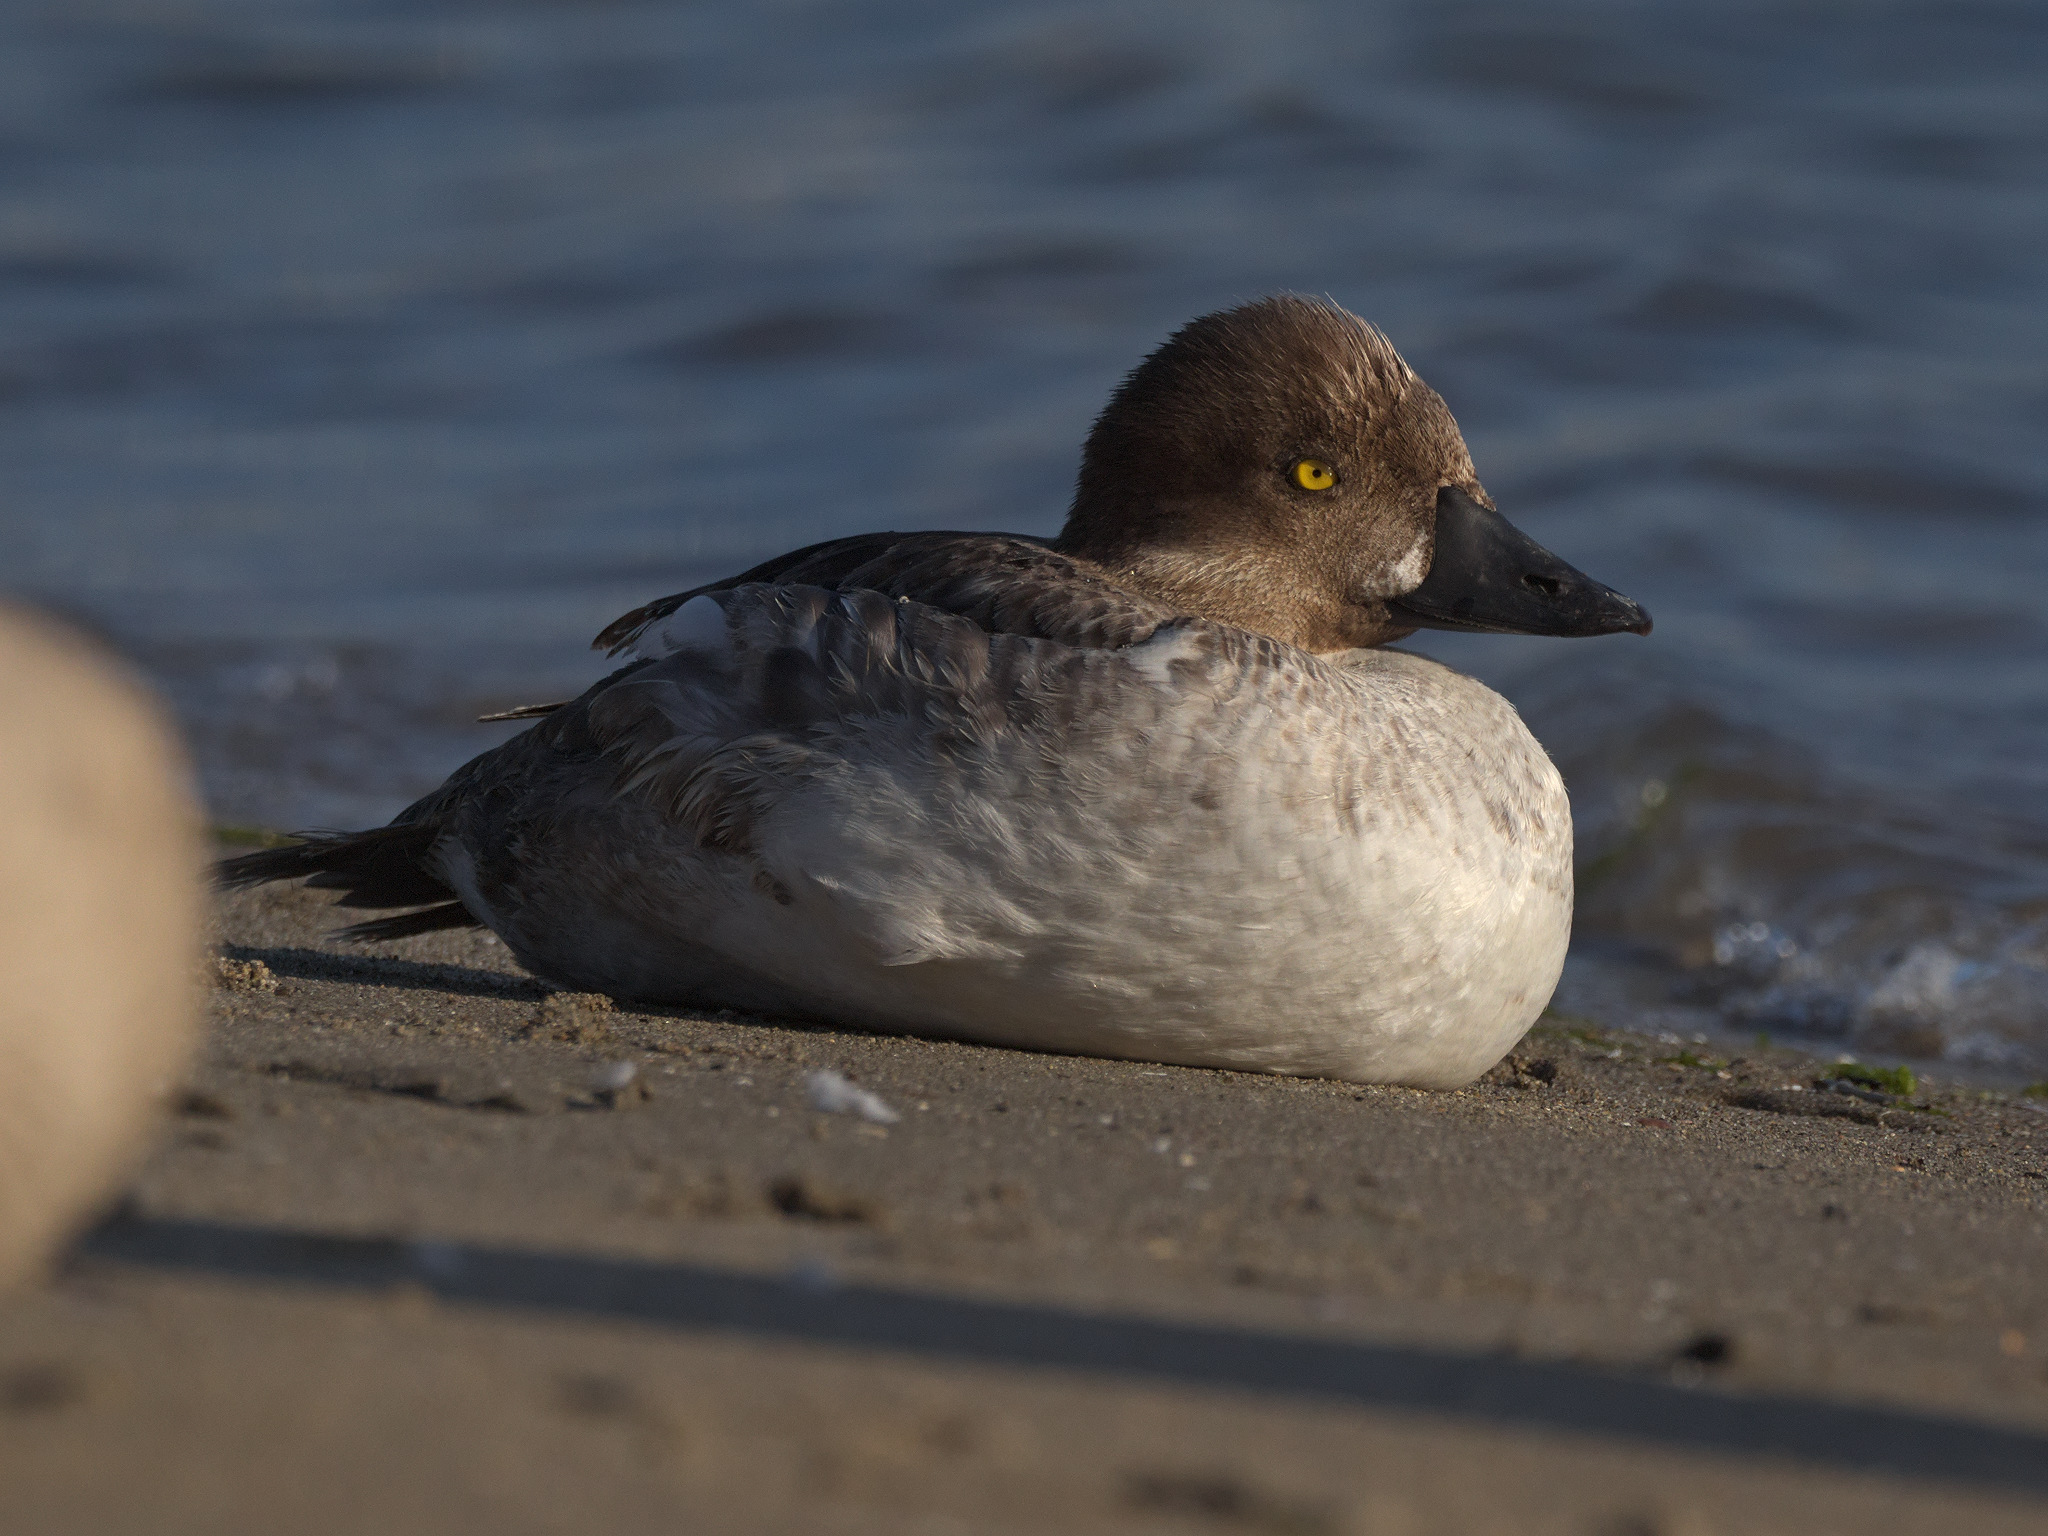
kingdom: Animalia
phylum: Chordata
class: Aves
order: Anseriformes
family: Anatidae
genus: Bucephala
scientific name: Bucephala clangula
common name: Common goldeneye
